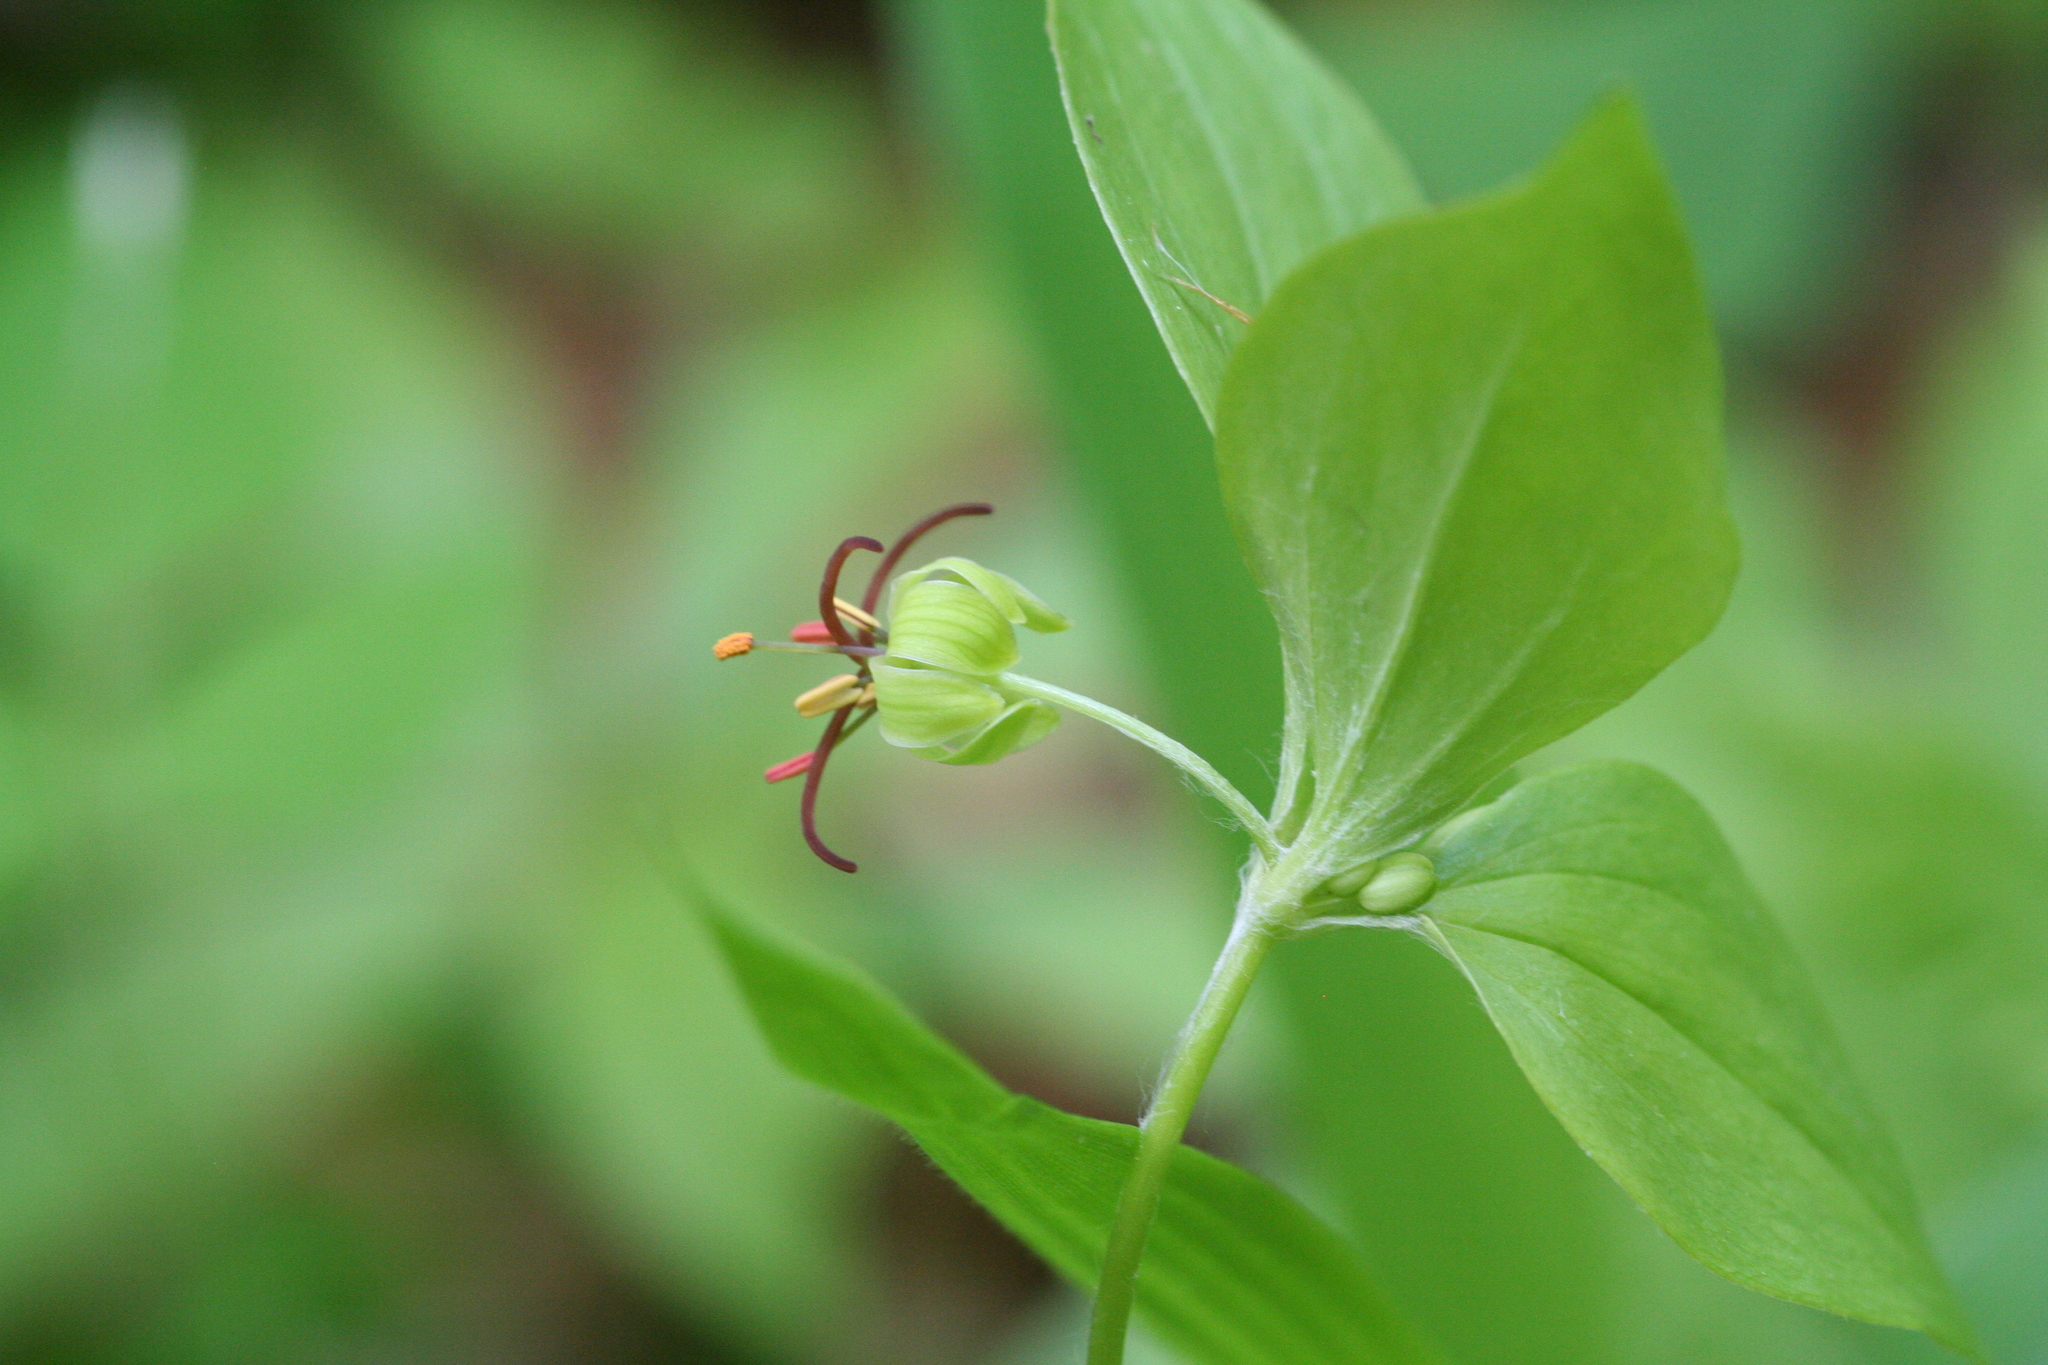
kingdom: Plantae
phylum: Tracheophyta
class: Liliopsida
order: Liliales
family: Liliaceae
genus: Medeola
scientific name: Medeola virginiana
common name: Indian cucumber-root
